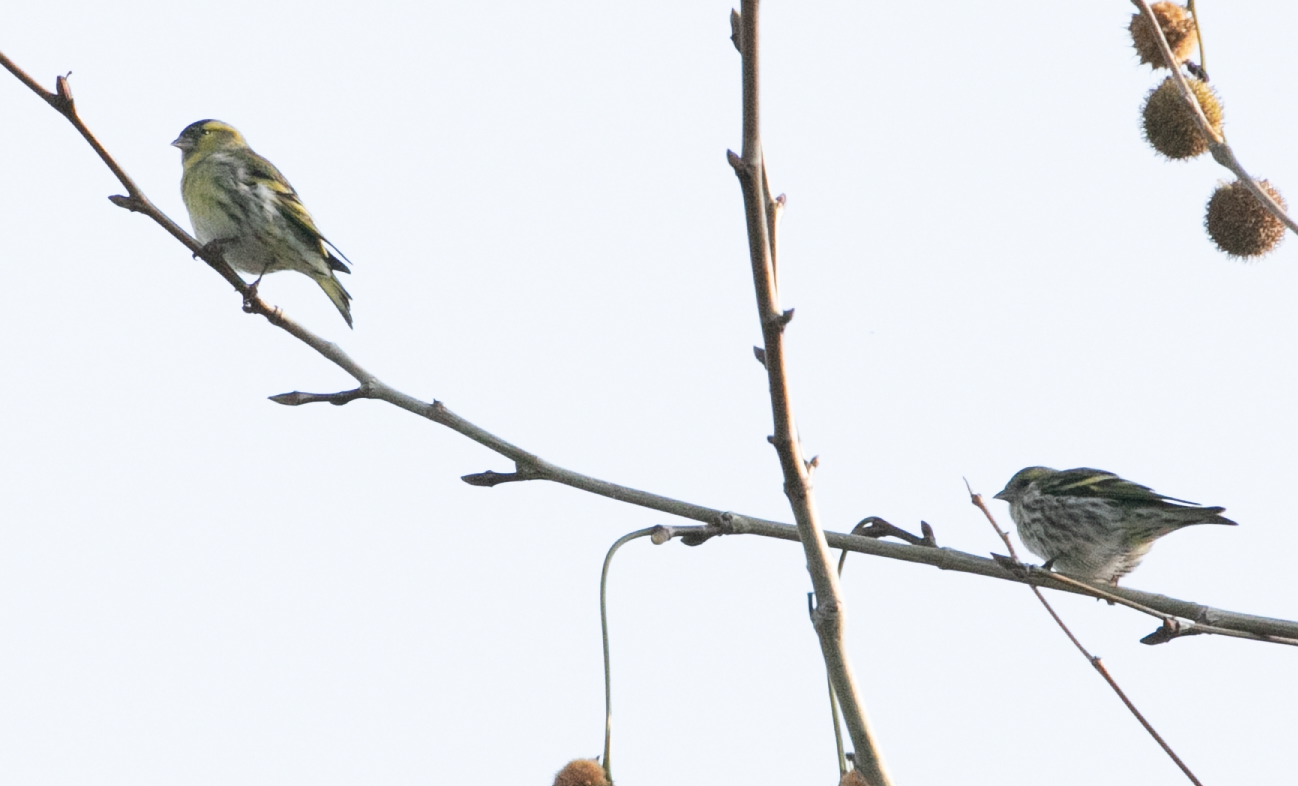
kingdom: Animalia
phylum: Chordata
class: Aves
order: Passeriformes
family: Fringillidae
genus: Spinus
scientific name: Spinus spinus
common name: Eurasian siskin
